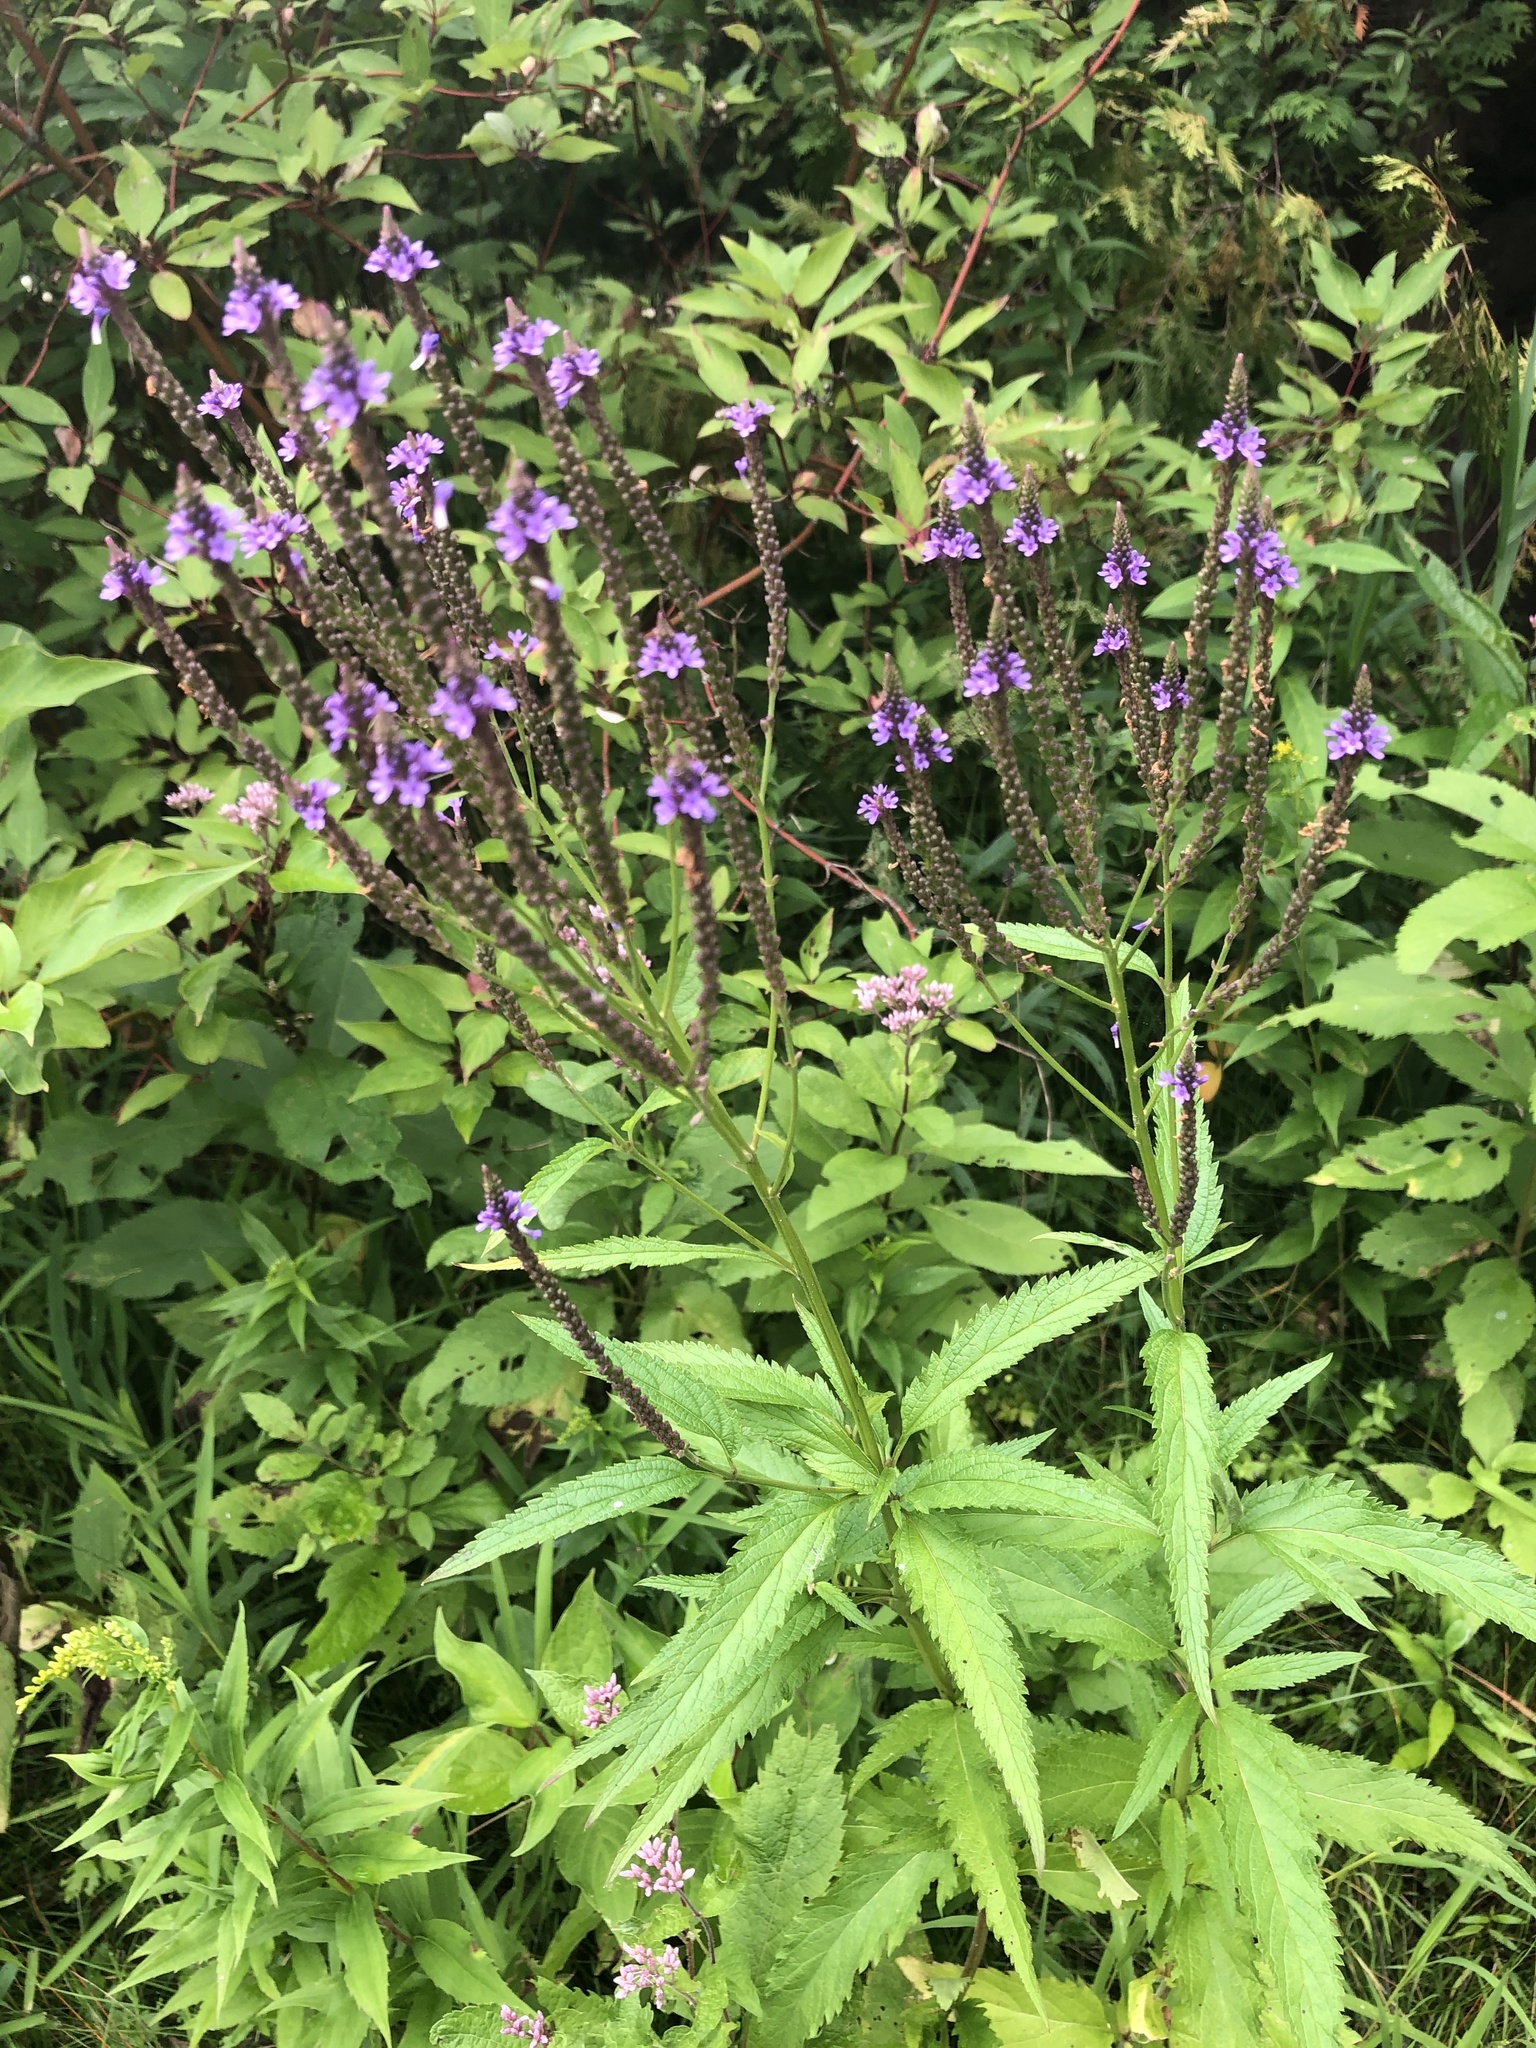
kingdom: Plantae
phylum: Tracheophyta
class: Magnoliopsida
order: Lamiales
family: Verbenaceae
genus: Verbena
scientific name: Verbena hastata
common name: American blue vervain
